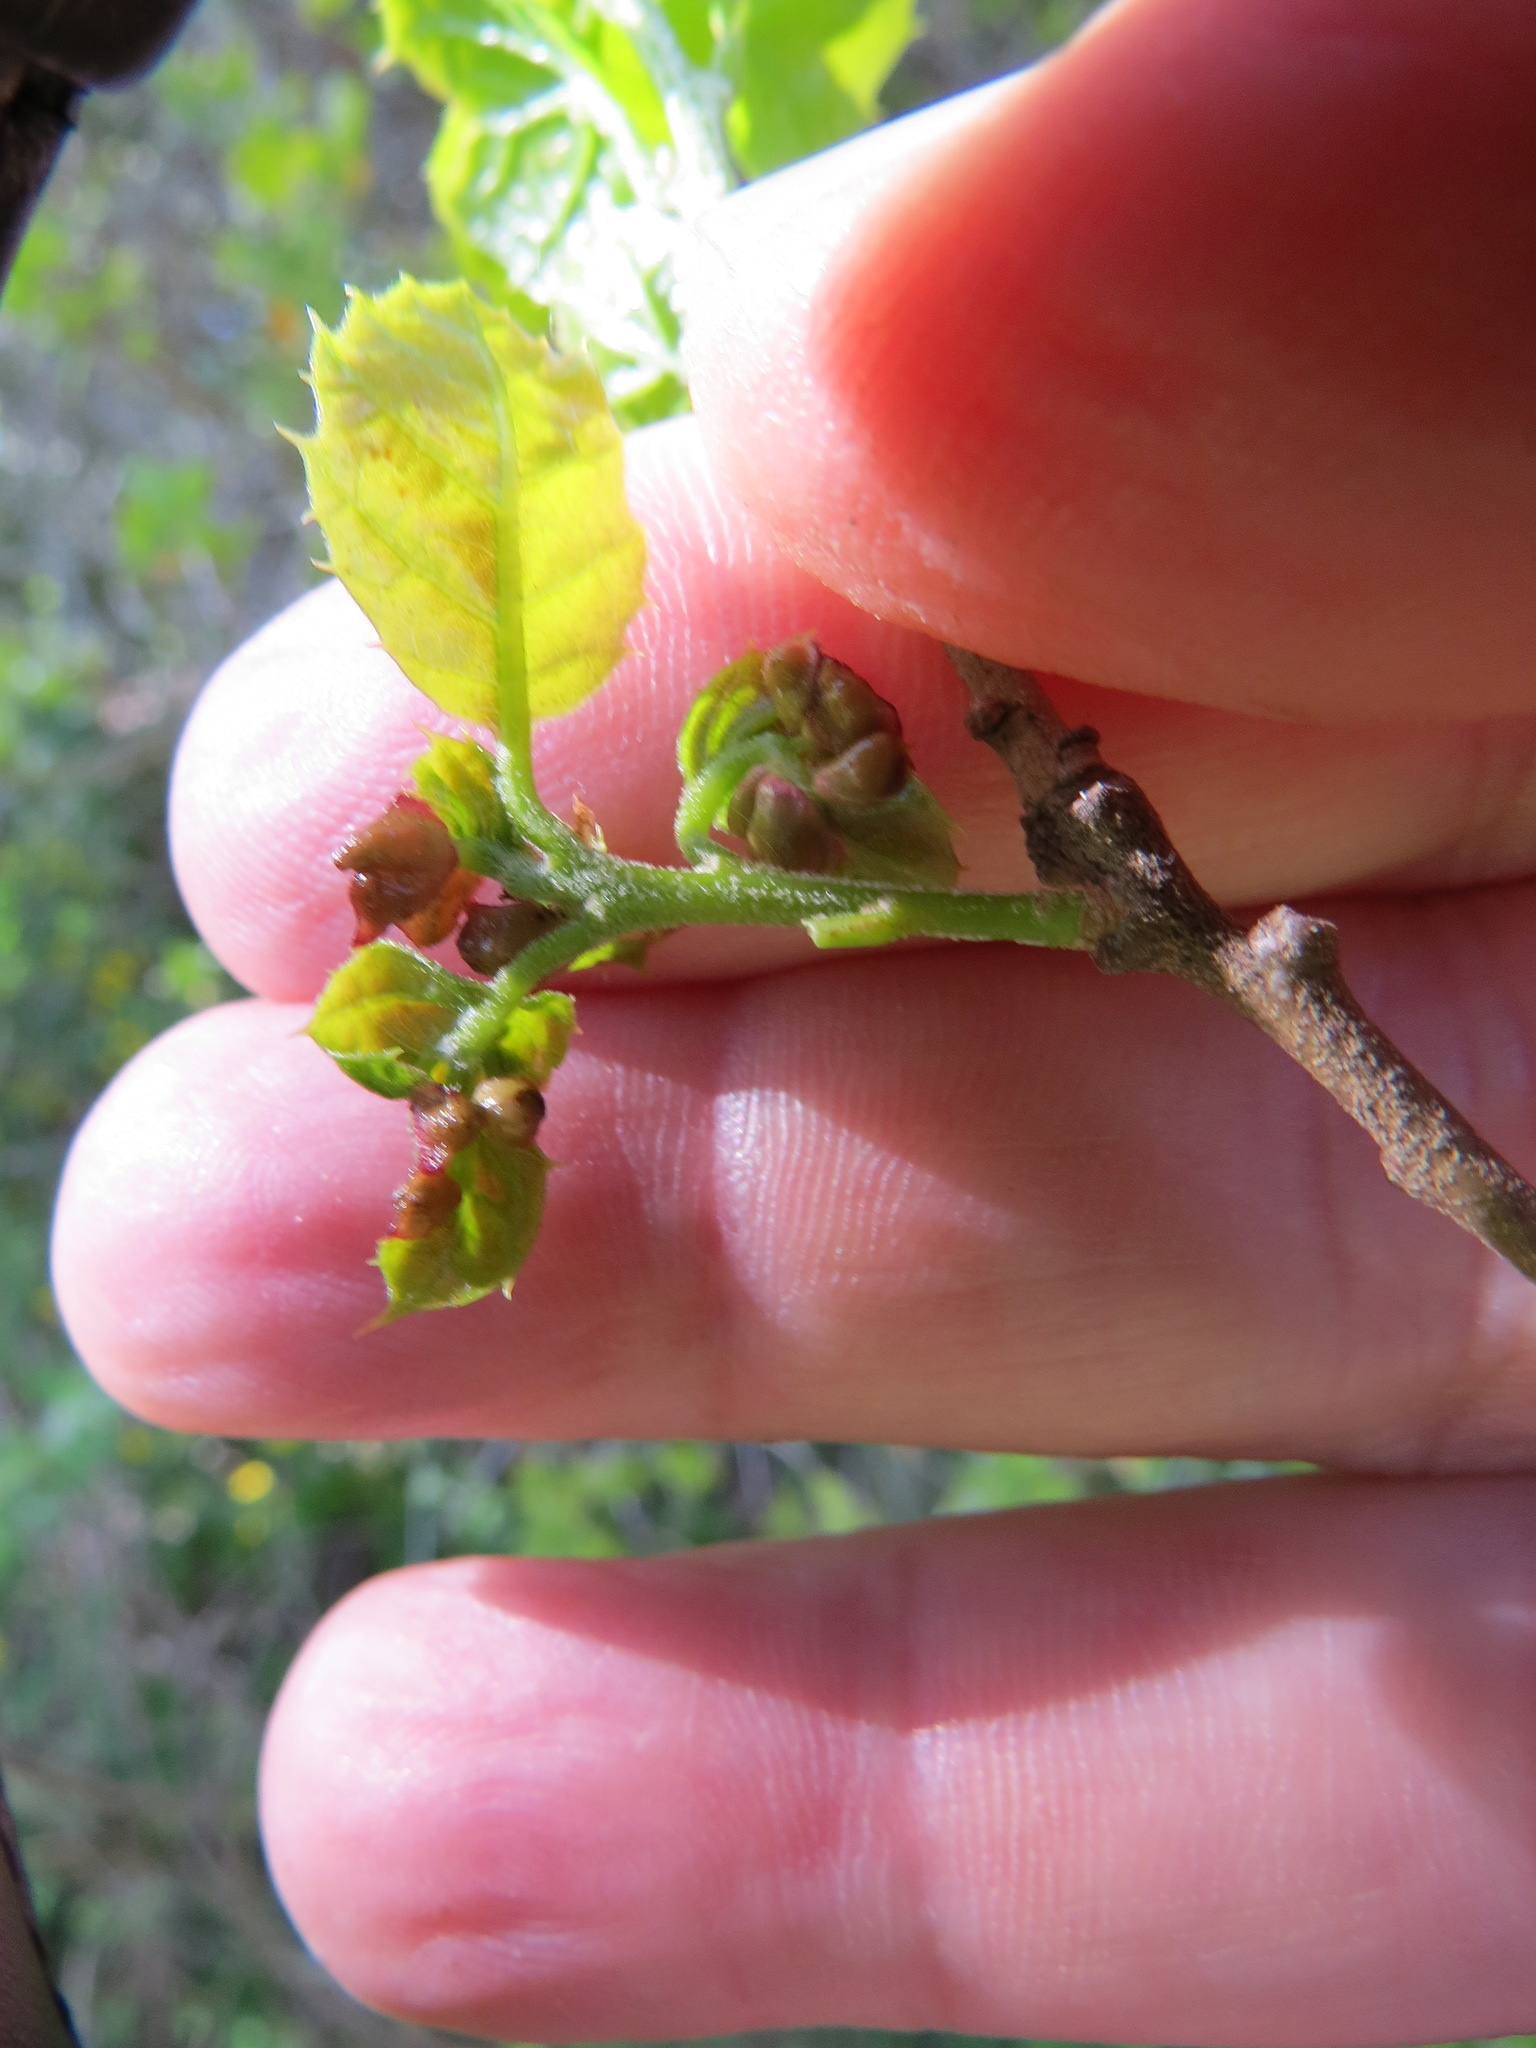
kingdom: Animalia
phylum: Arthropoda
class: Insecta
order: Hymenoptera
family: Cynipidae
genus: Dryocosmus
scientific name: Dryocosmus
